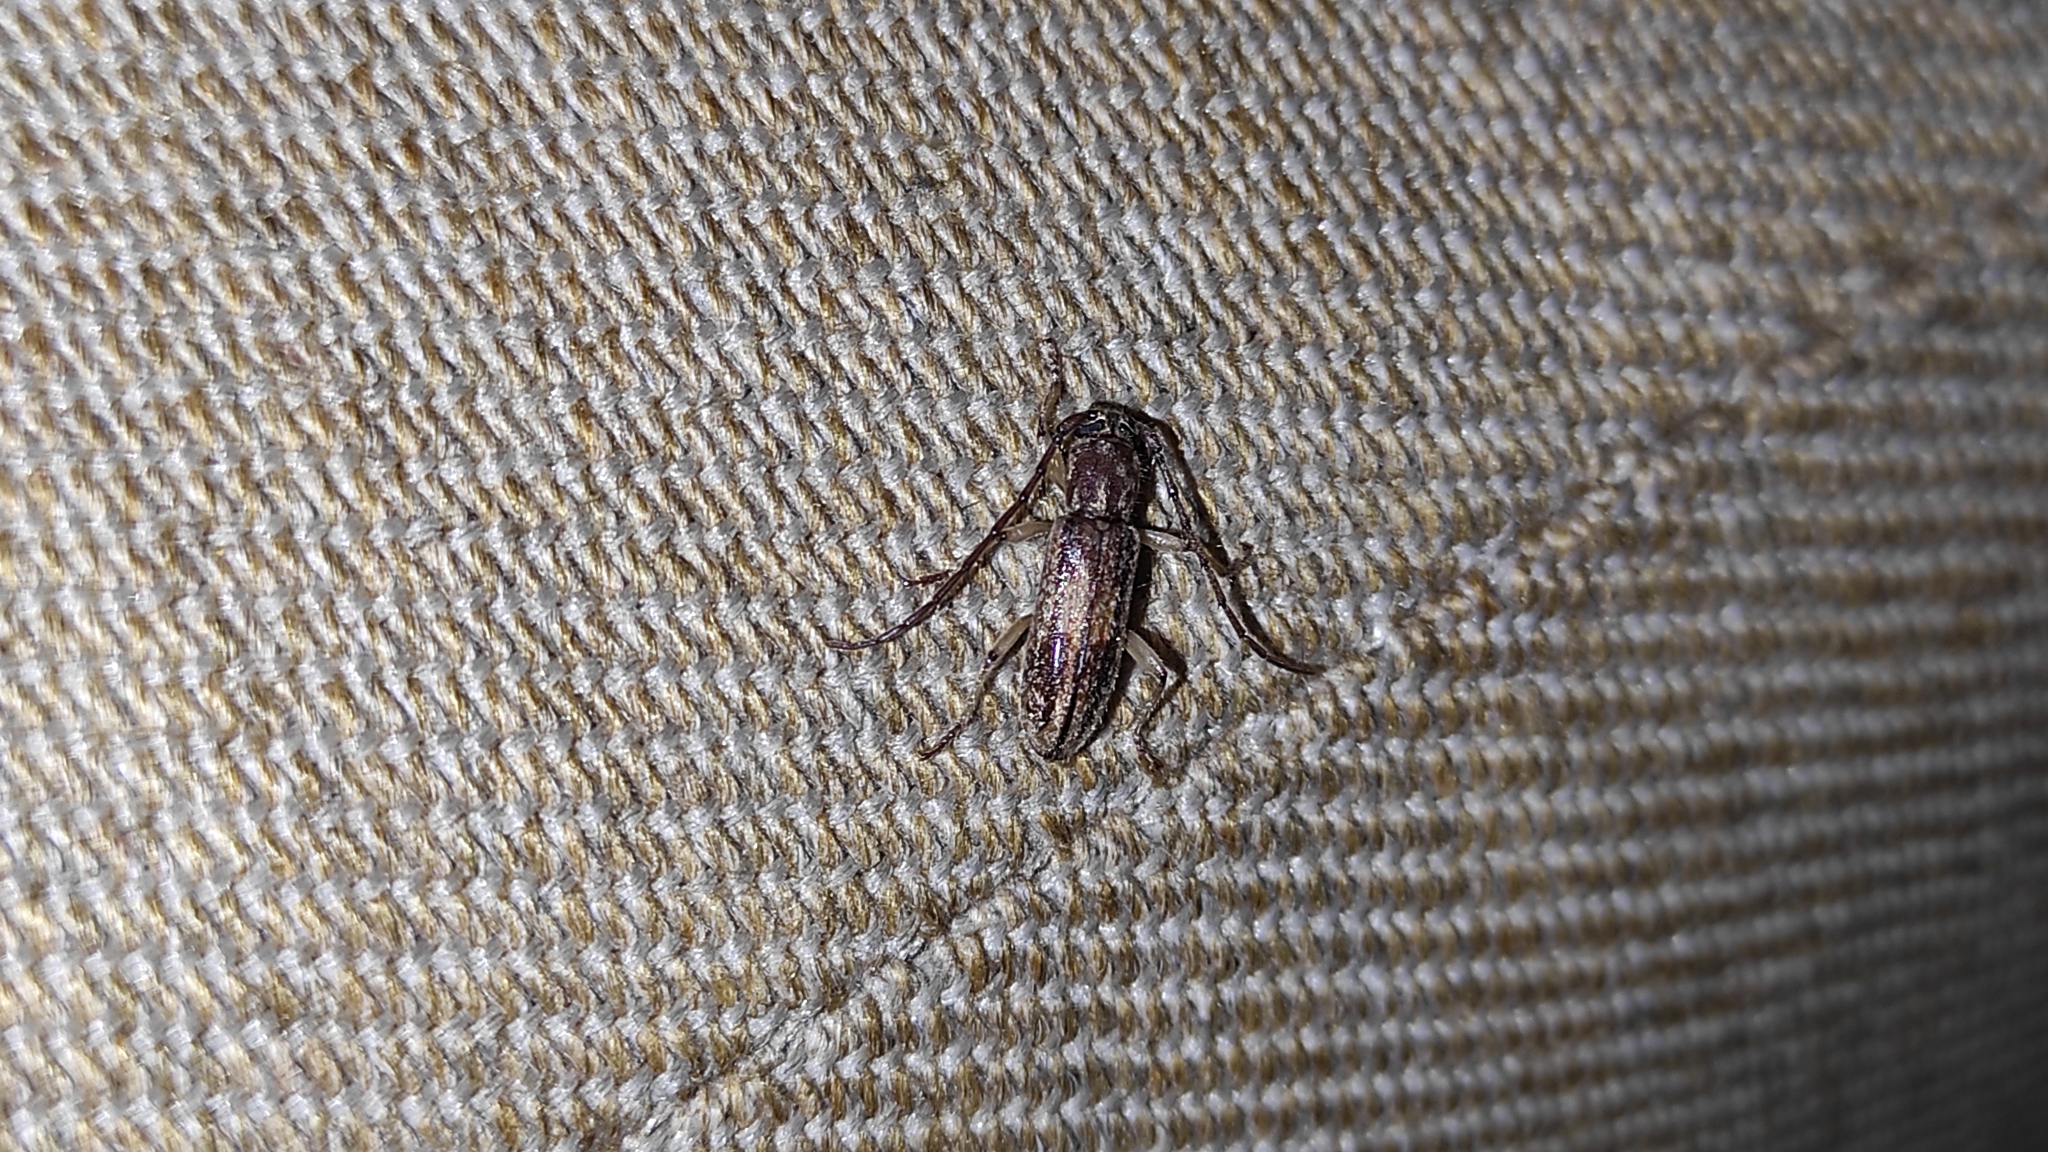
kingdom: Animalia
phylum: Arthropoda
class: Insecta
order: Coleoptera
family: Cerambycidae
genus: Anelaphus
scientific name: Anelaphus cinereus
